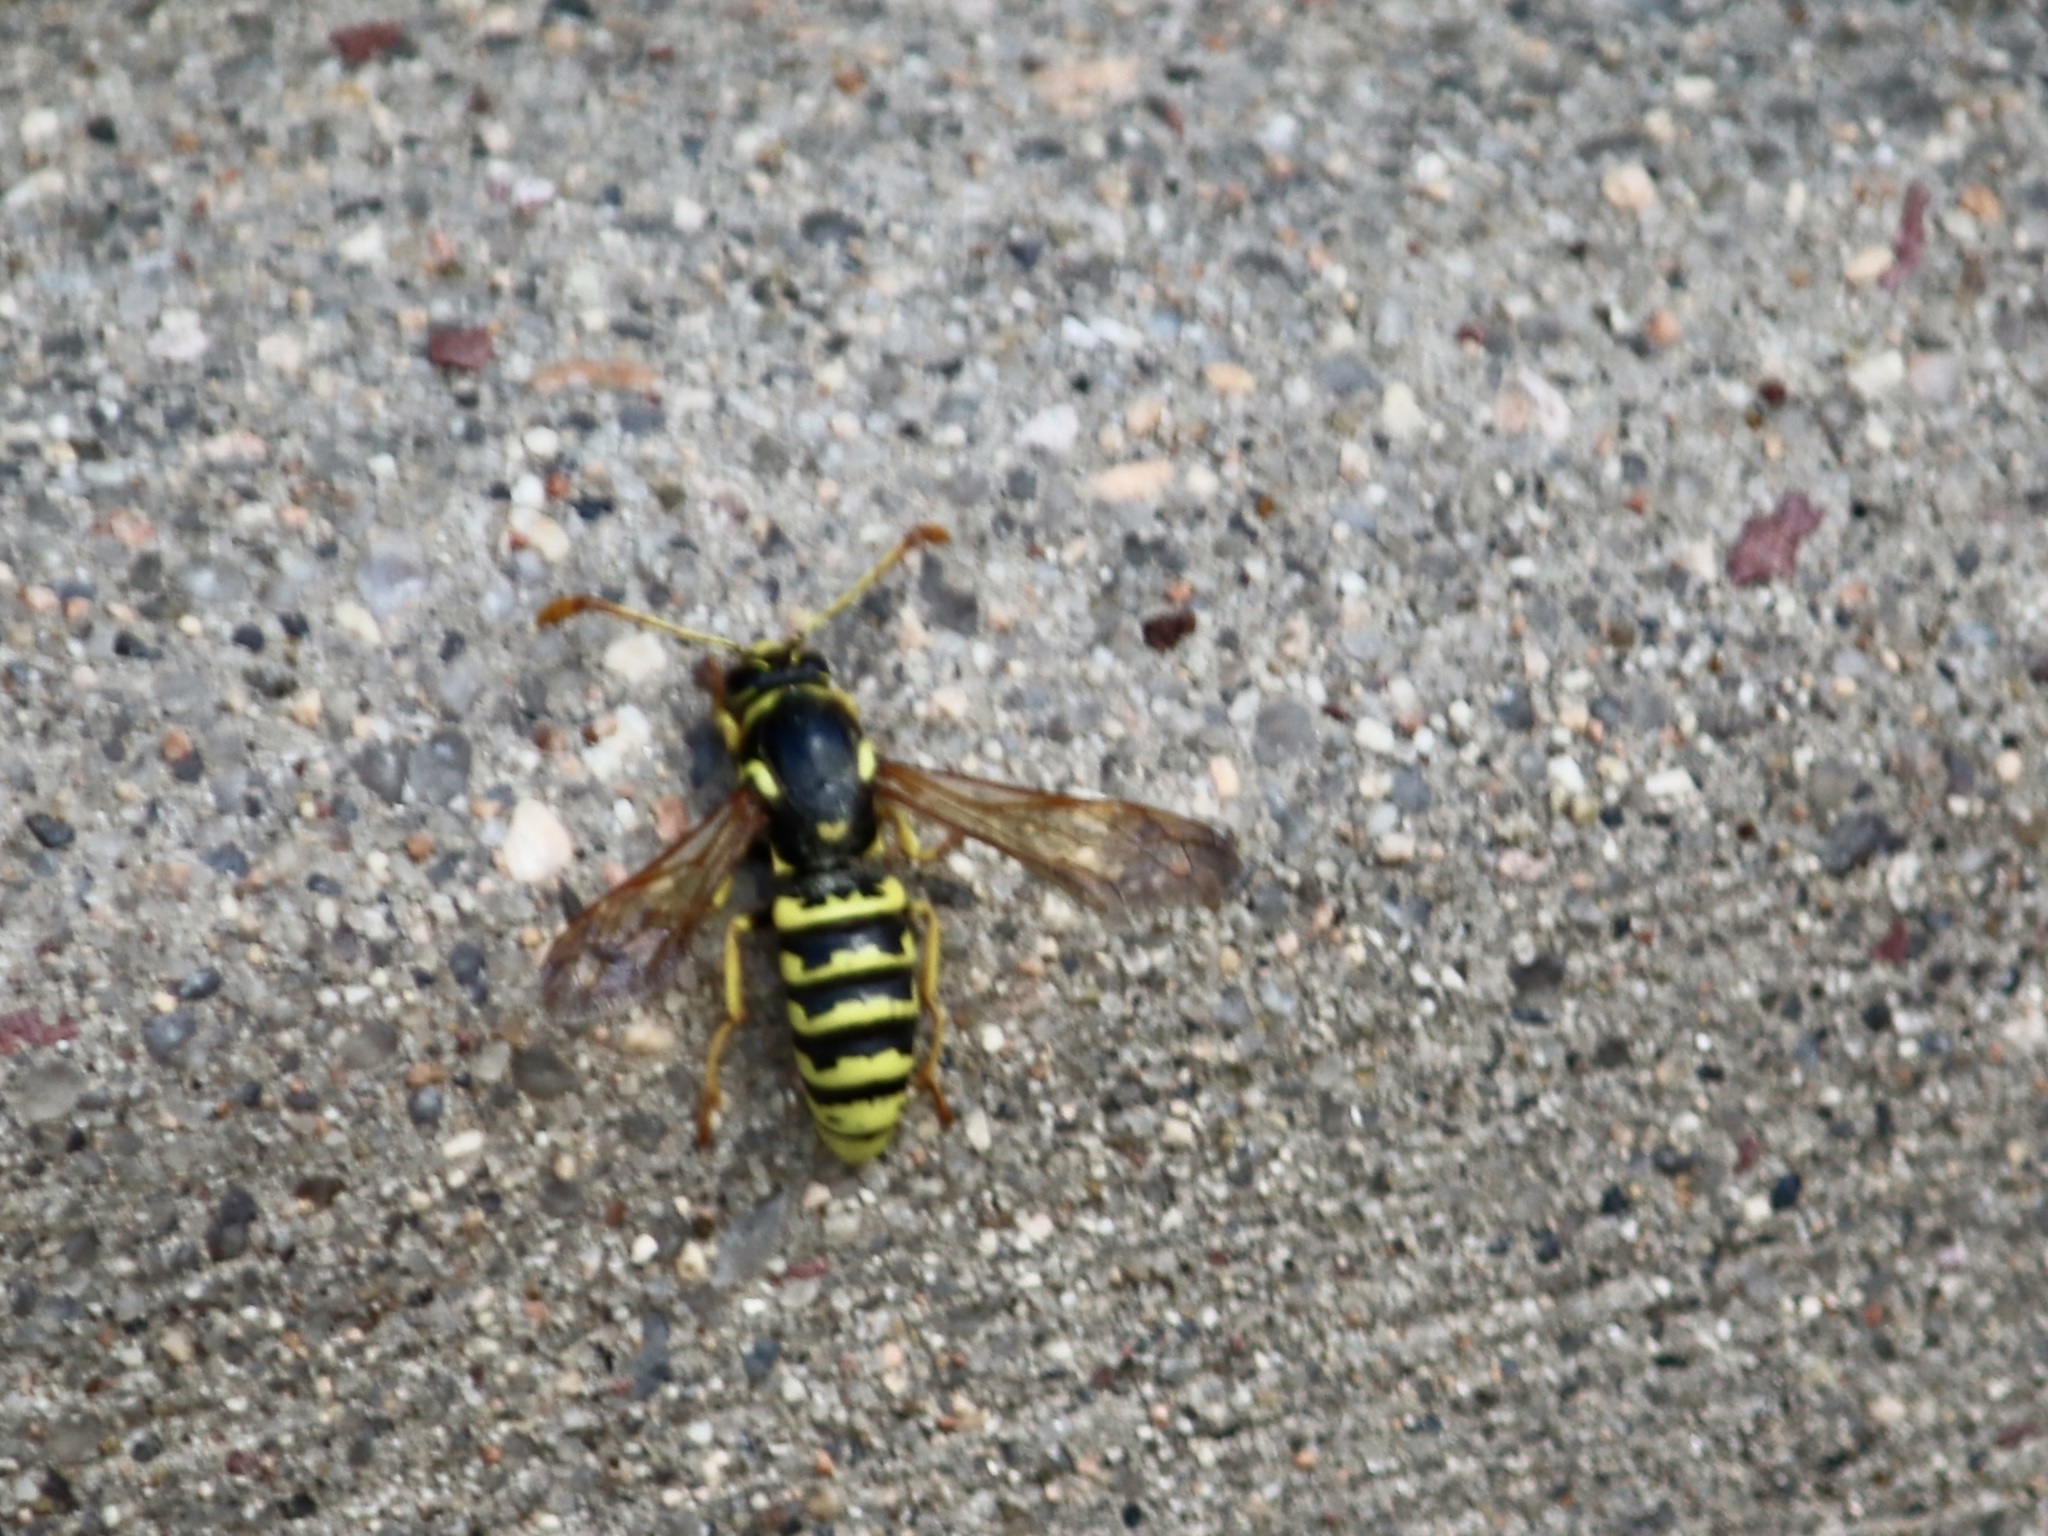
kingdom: Animalia
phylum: Arthropoda
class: Insecta
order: Hymenoptera
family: Masaridae
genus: Pseudomasaris
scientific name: Pseudomasaris vespoides
